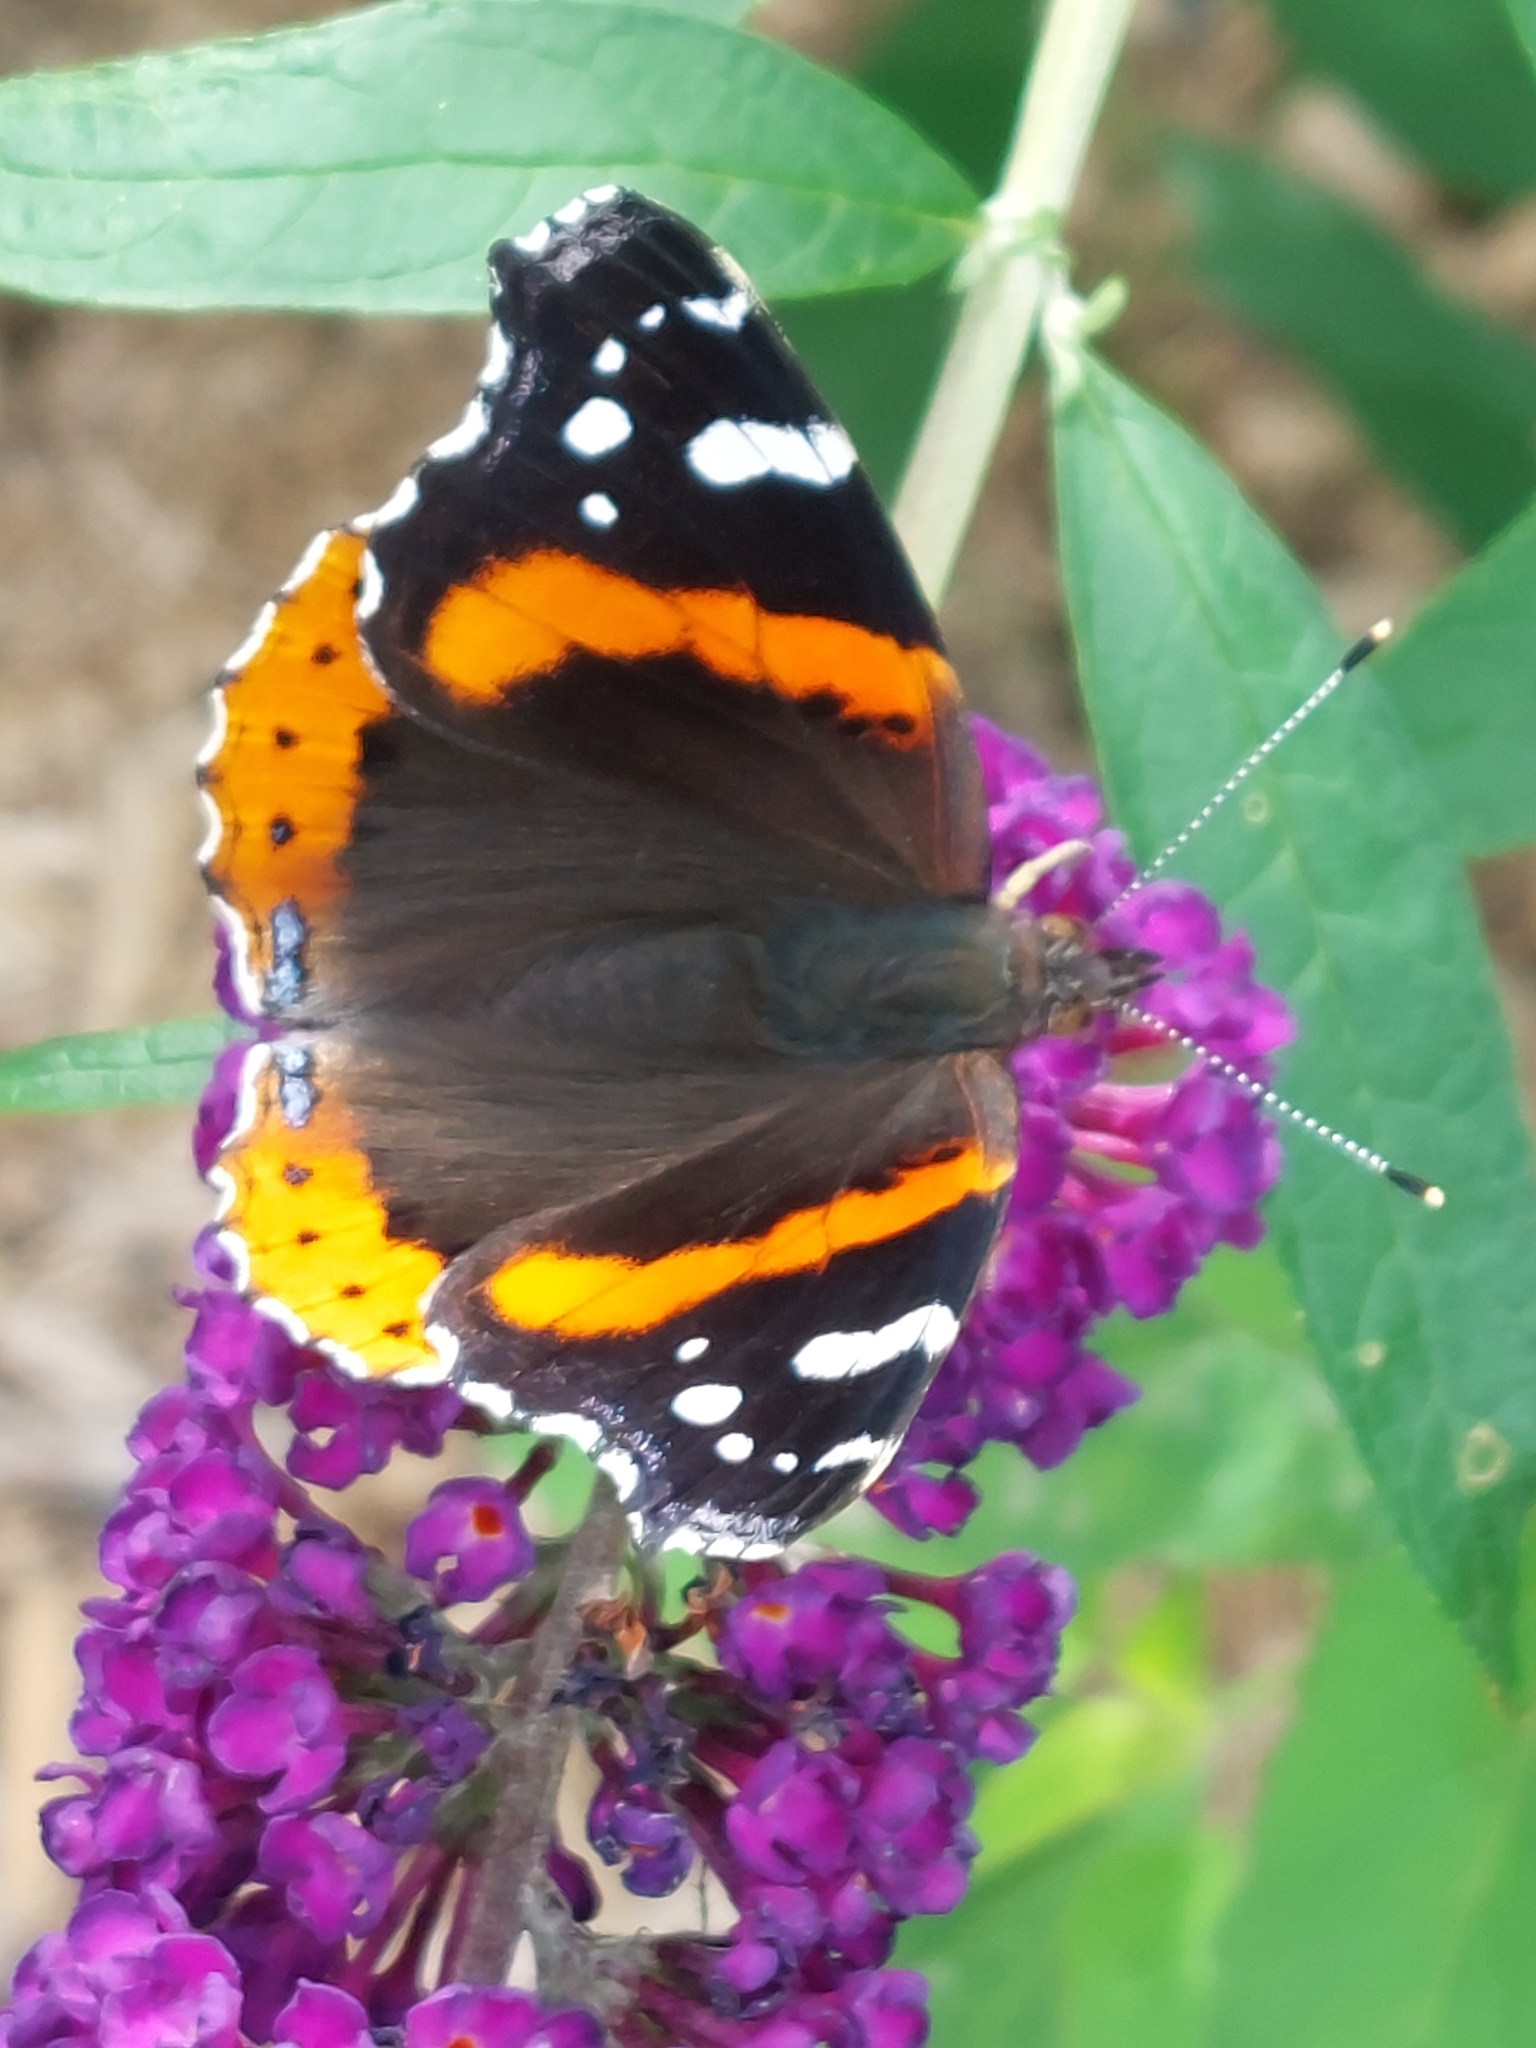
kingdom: Animalia
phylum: Arthropoda
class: Insecta
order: Lepidoptera
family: Nymphalidae
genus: Vanessa
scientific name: Vanessa atalanta
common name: Red admiral
